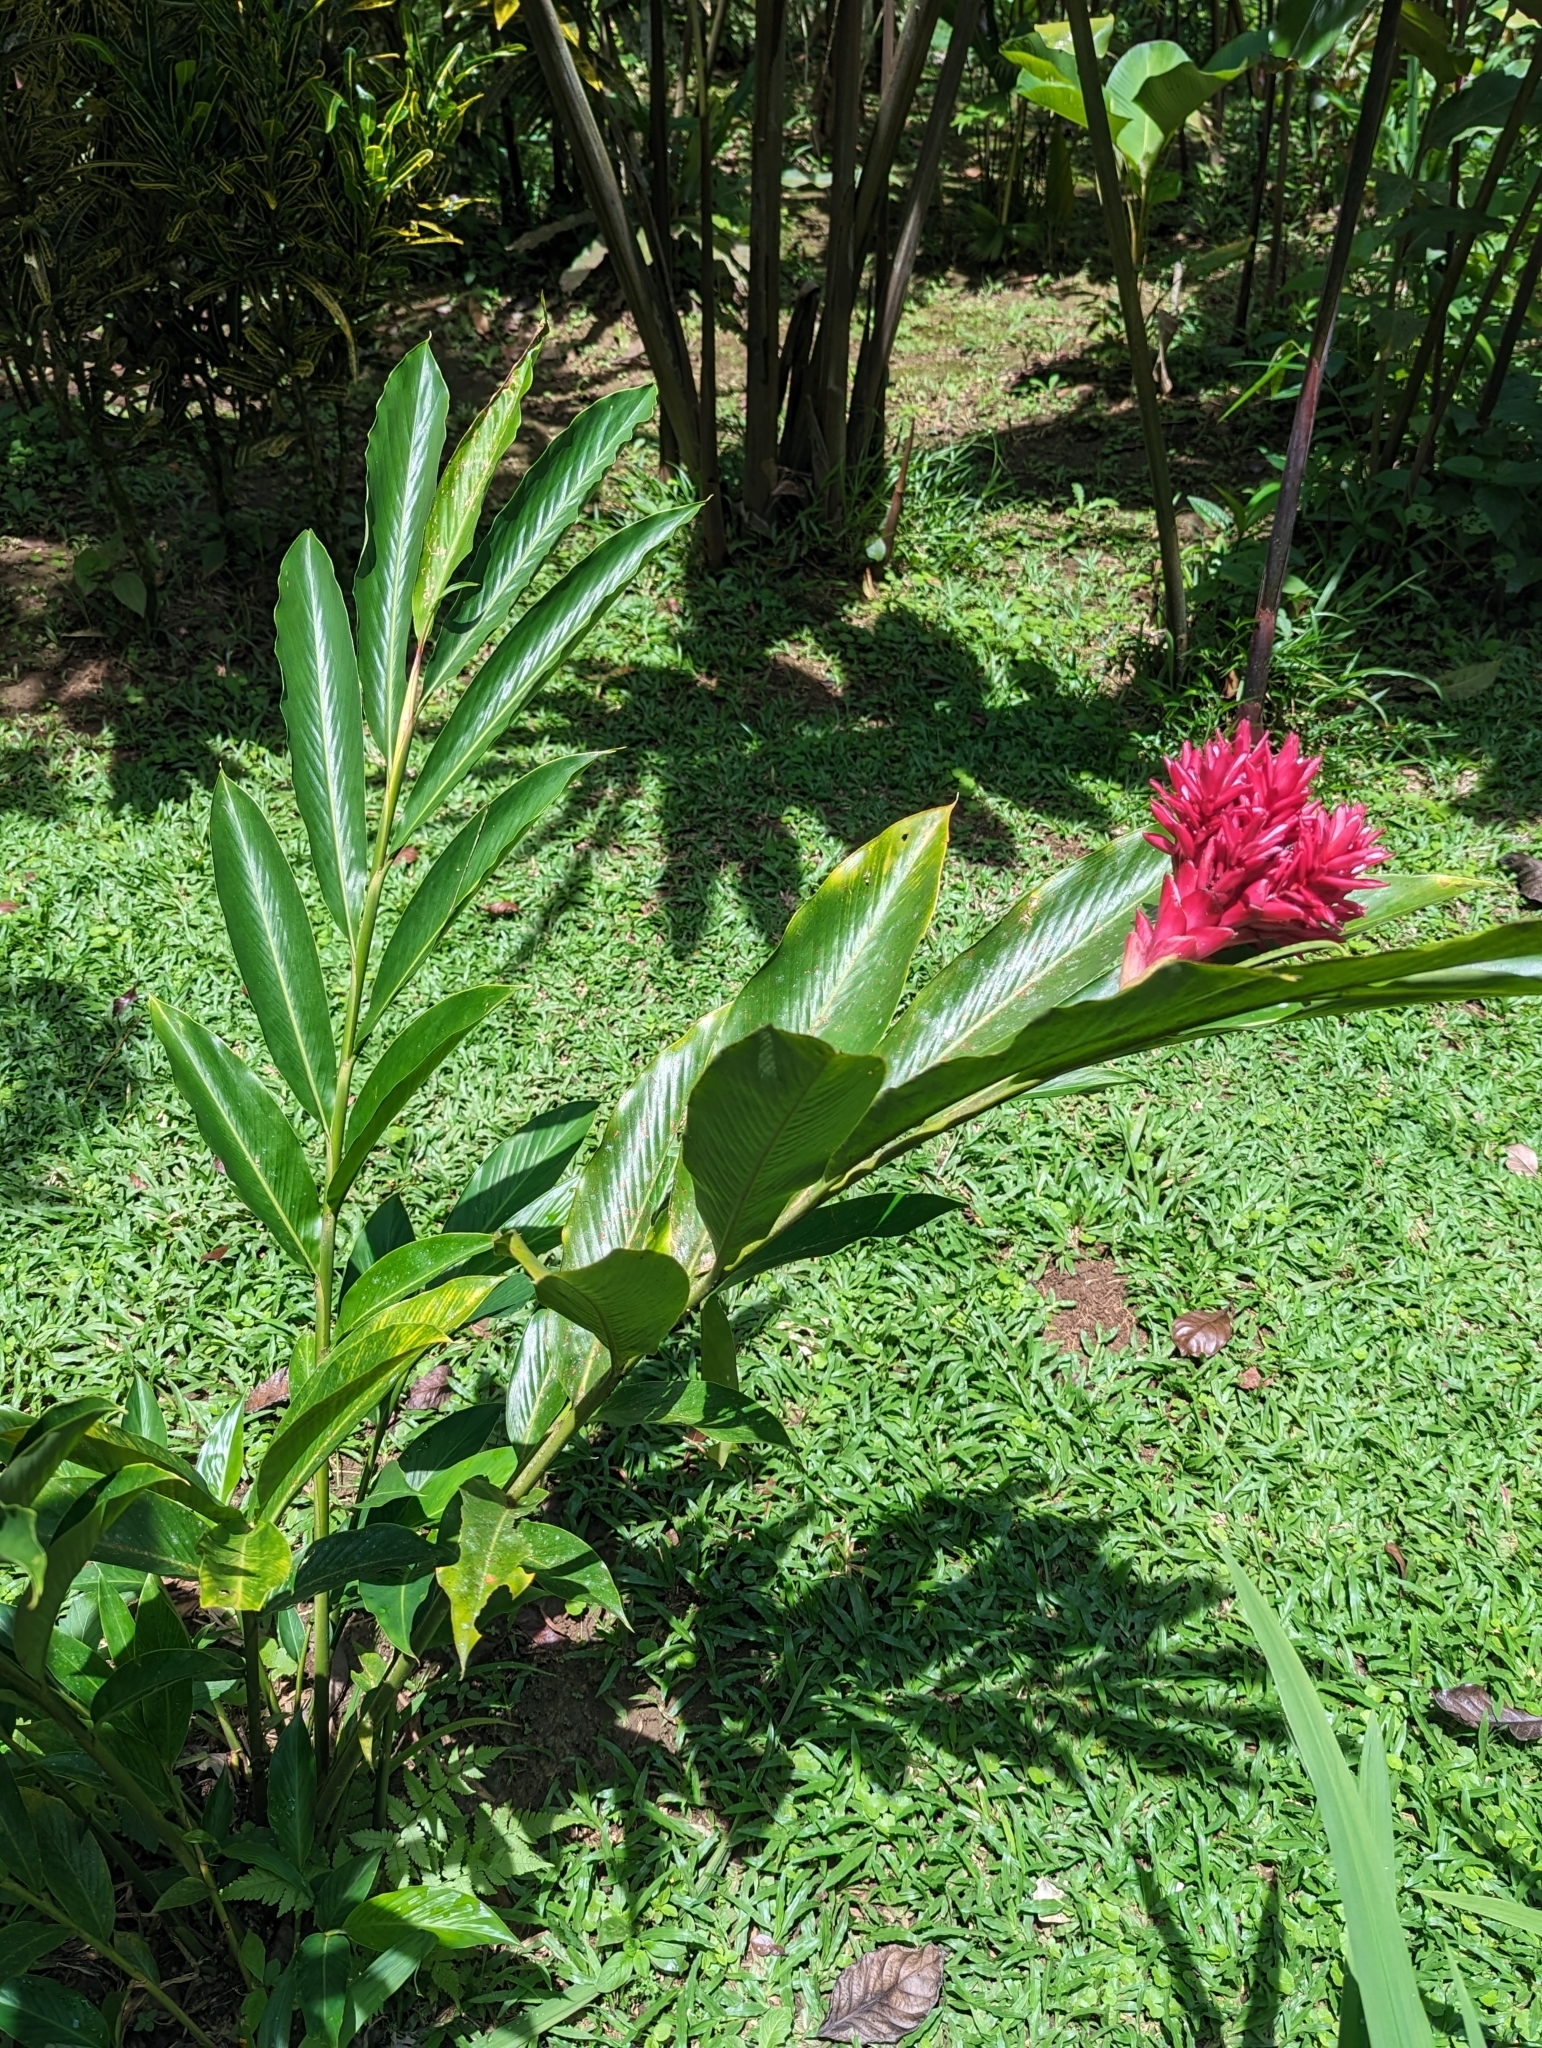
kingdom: Plantae
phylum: Tracheophyta
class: Liliopsida
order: Zingiberales
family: Zingiberaceae
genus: Alpinia
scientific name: Alpinia purpurata
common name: Red ginger
